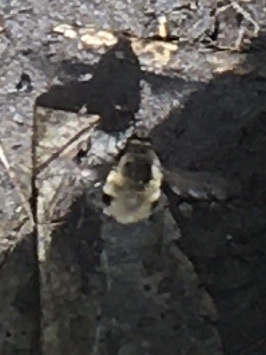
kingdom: Animalia
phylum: Arthropoda
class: Insecta
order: Diptera
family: Bombyliidae
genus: Bombylius
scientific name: Bombylius major
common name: Bee fly
